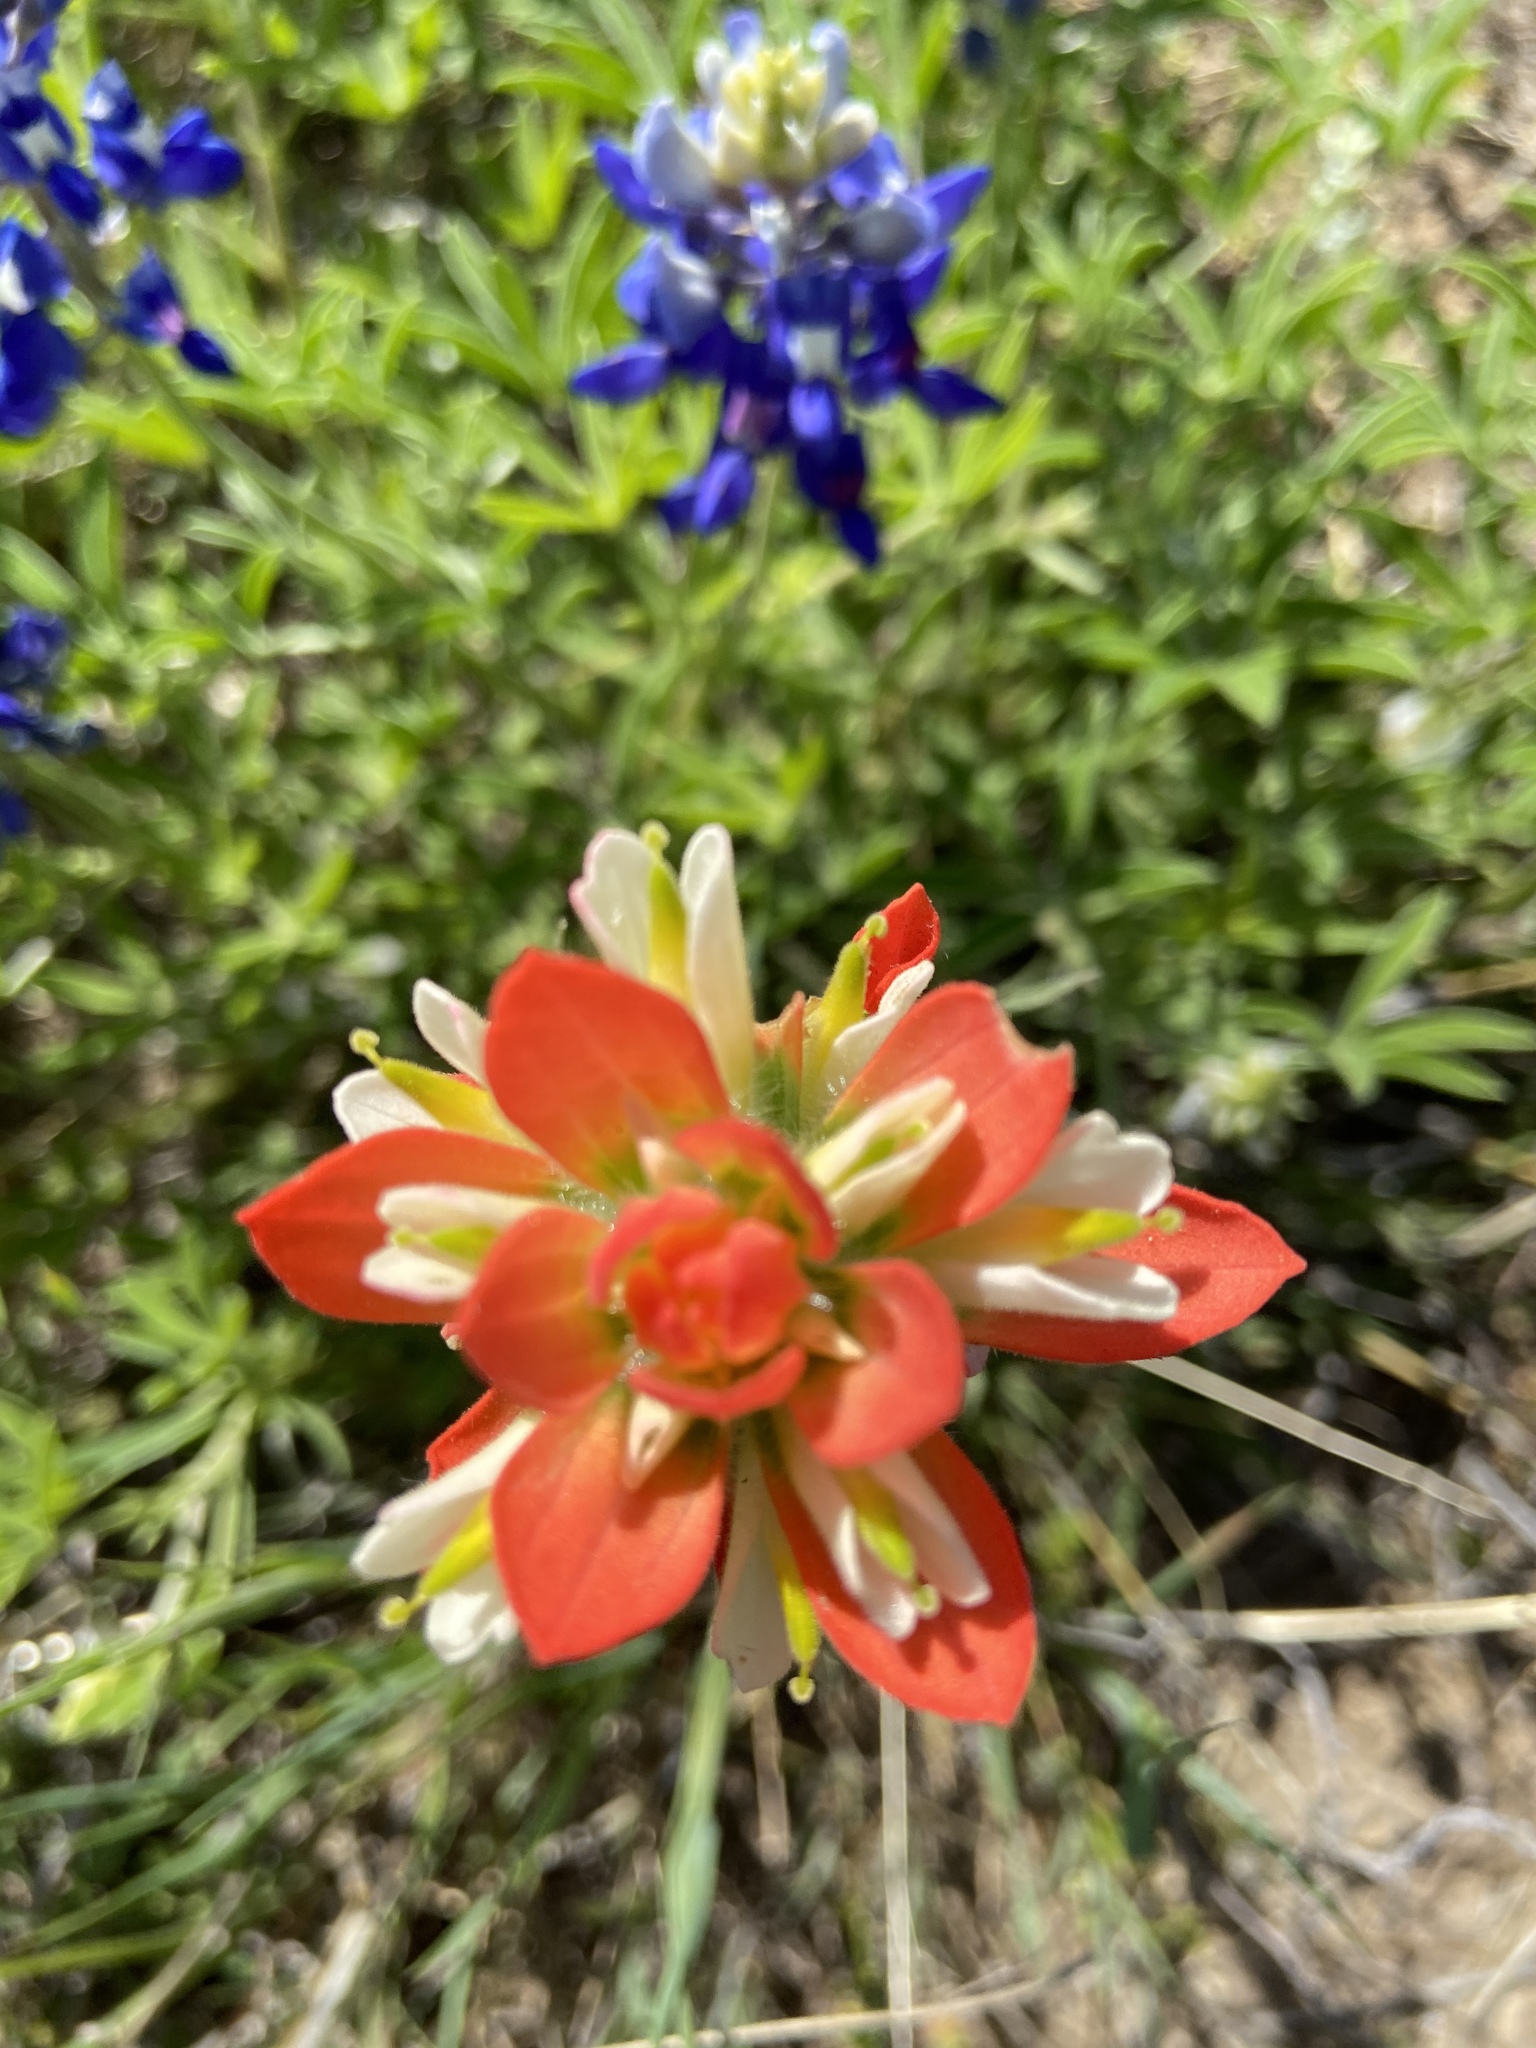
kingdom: Plantae
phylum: Tracheophyta
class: Magnoliopsida
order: Lamiales
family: Orobanchaceae
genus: Castilleja
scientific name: Castilleja indivisa
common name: Texas paintbrush
